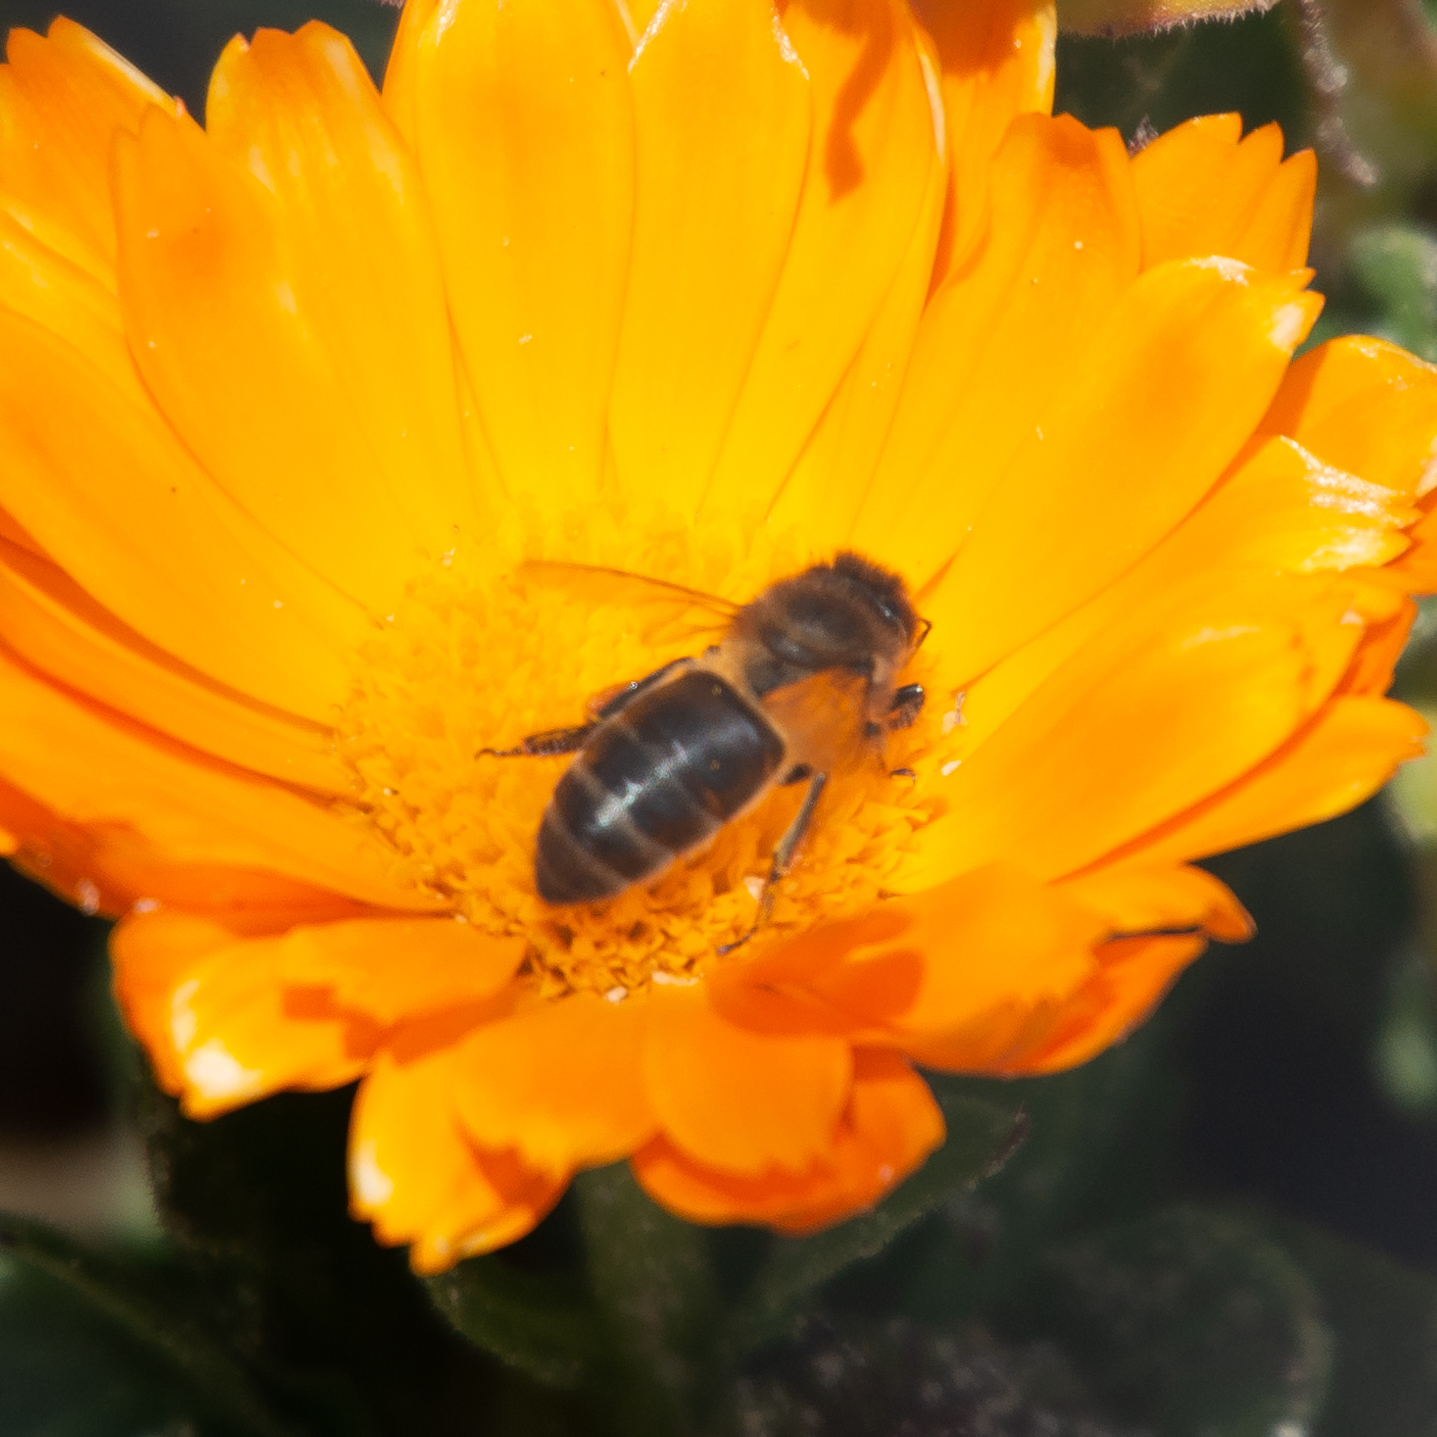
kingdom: Animalia
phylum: Arthropoda
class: Insecta
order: Hymenoptera
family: Apidae
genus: Apis
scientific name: Apis mellifera
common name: Honey bee
